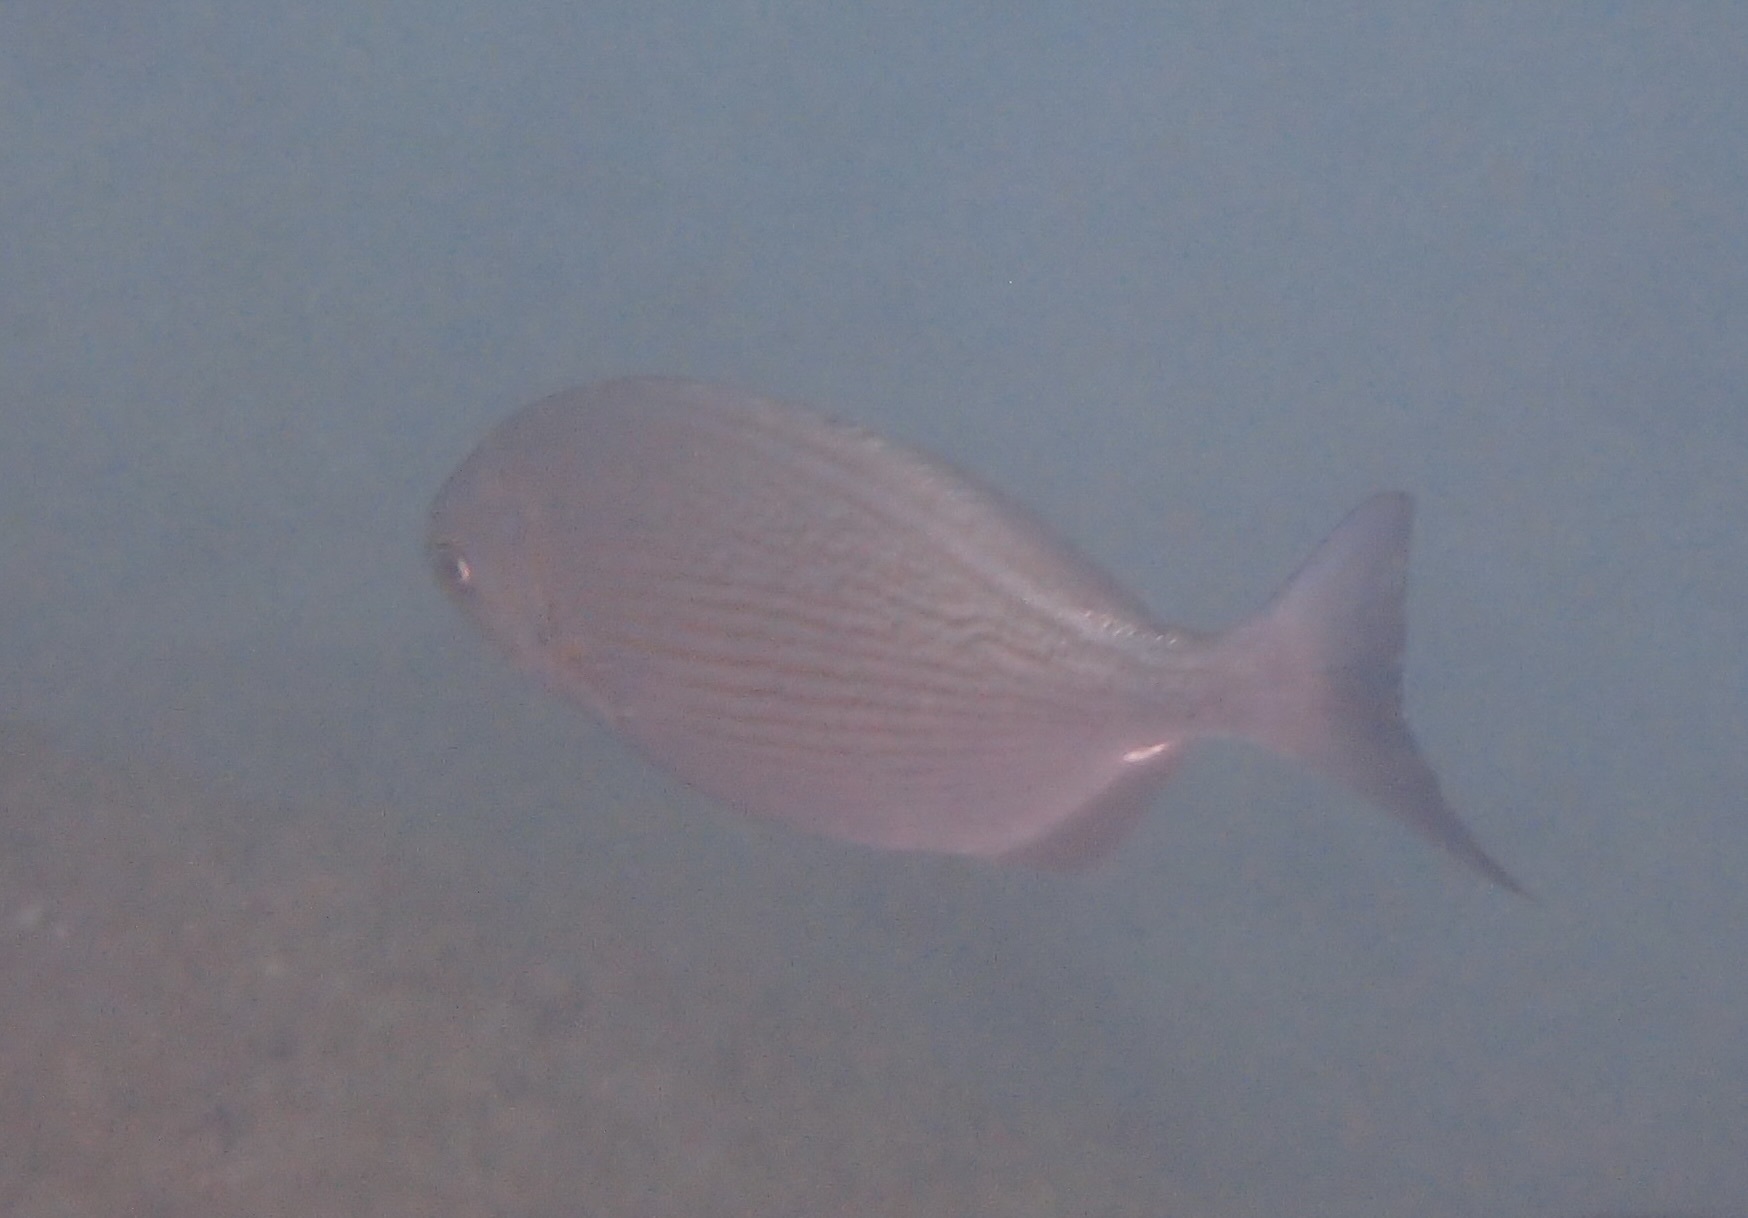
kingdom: Animalia
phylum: Chordata
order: Perciformes
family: Kyphosidae
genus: Kyphosus
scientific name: Kyphosus vaigiensis
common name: Brassy chub
